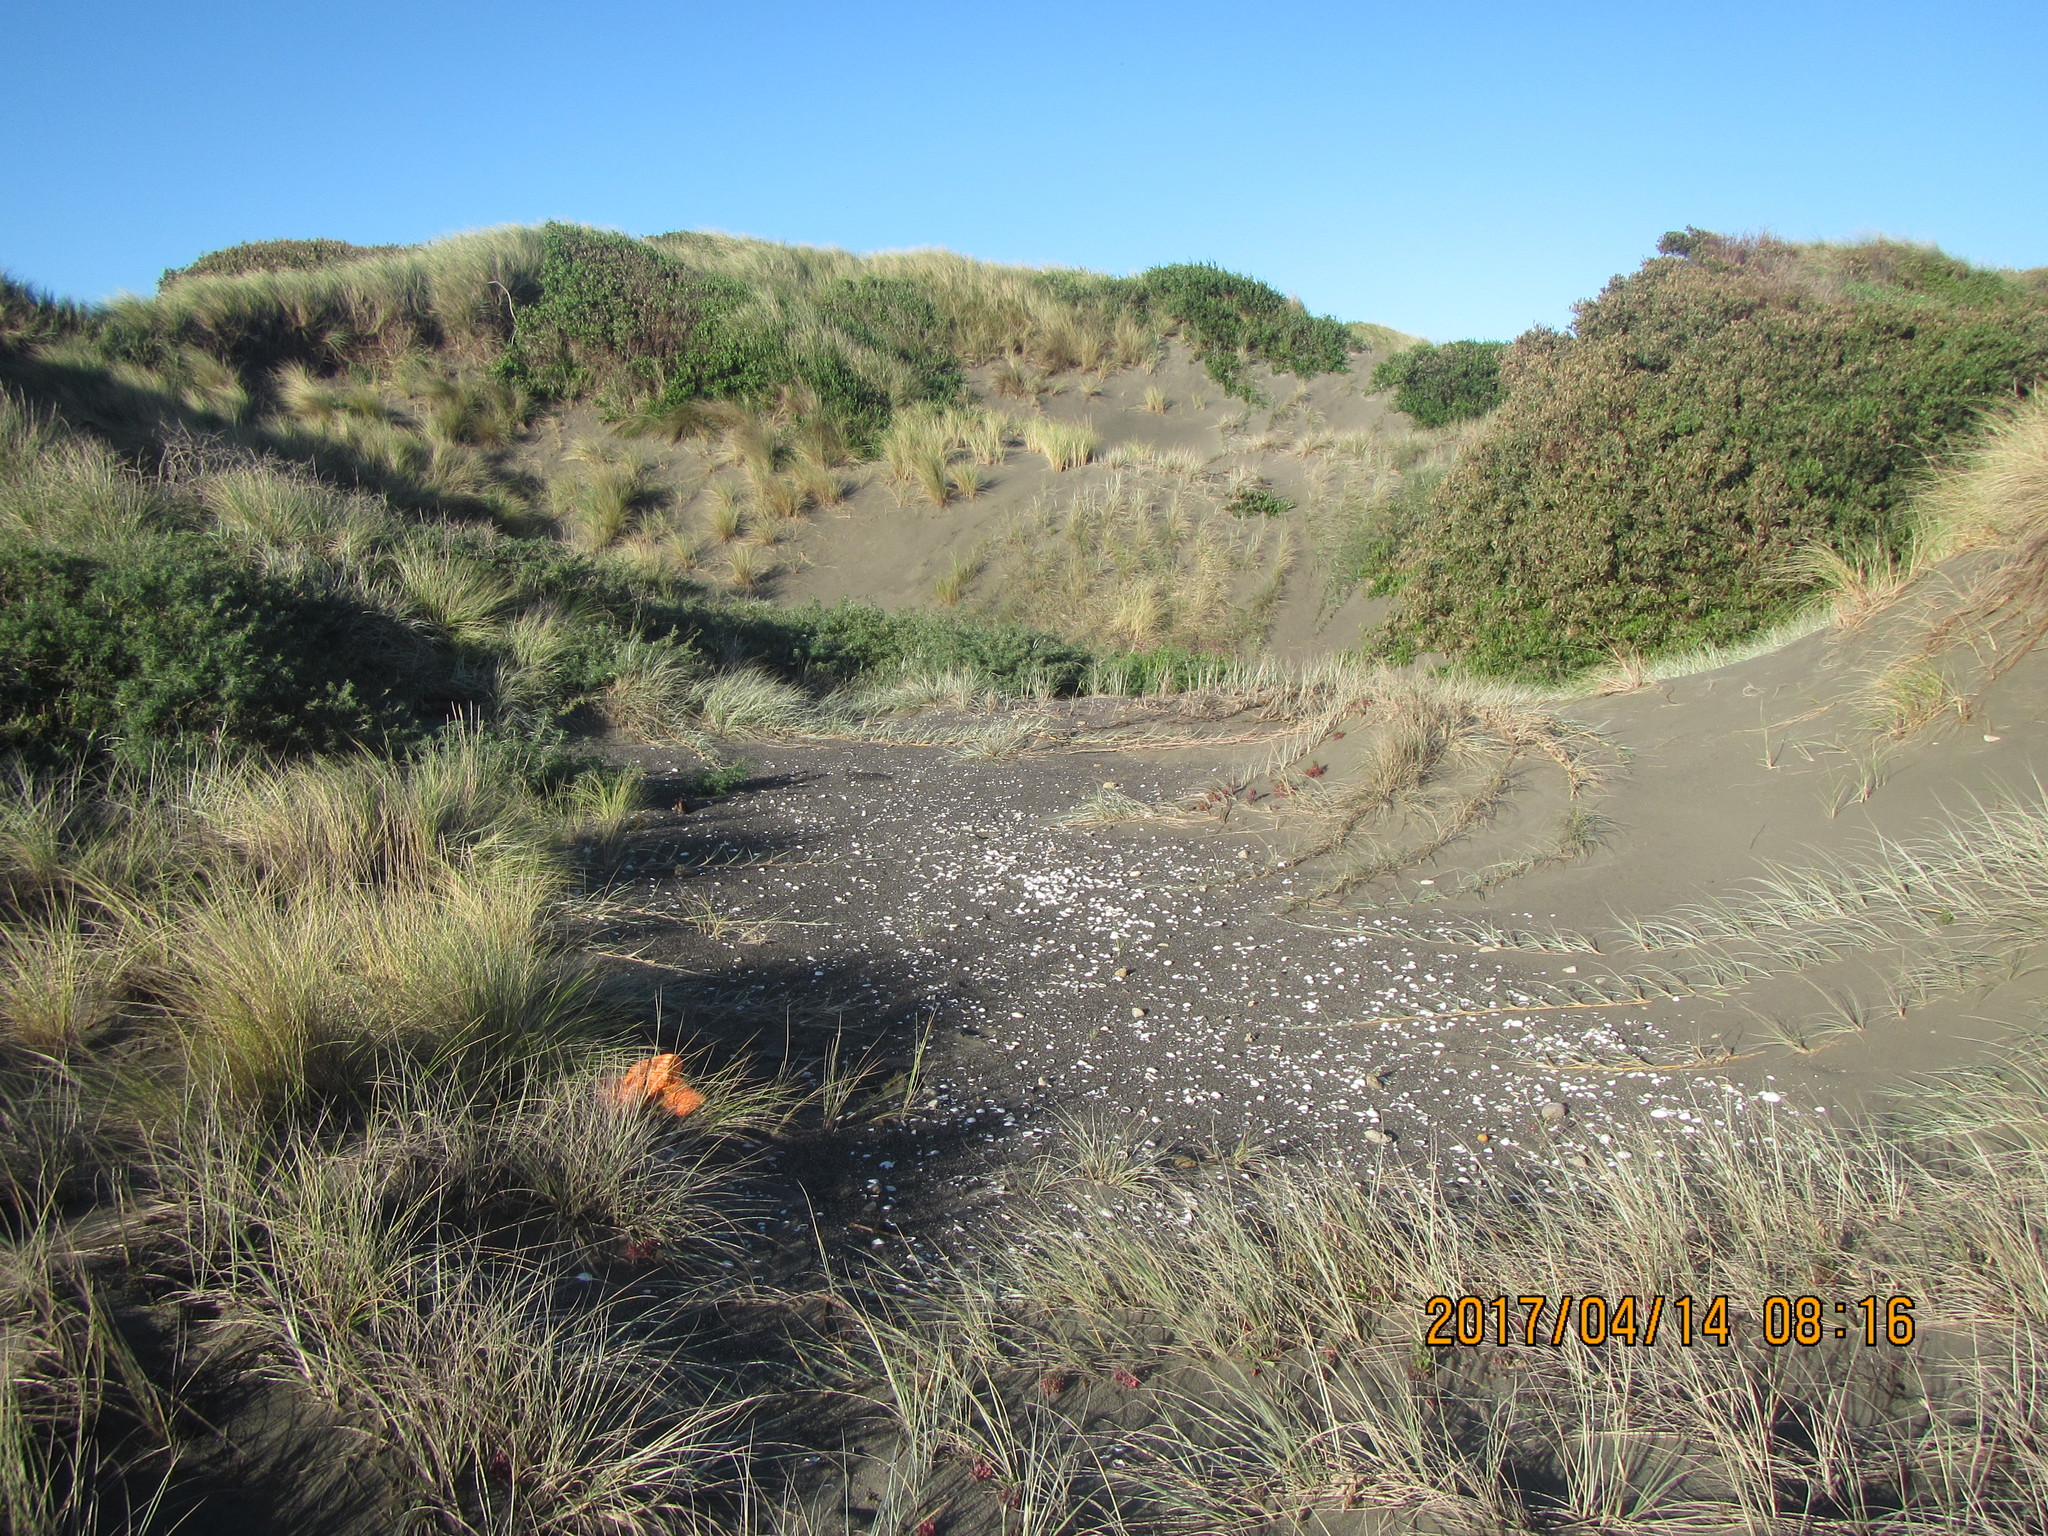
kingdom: Animalia
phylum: Arthropoda
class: Arachnida
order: Araneae
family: Stiphidiidae
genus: Stiphidion
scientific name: Stiphidion facetum
